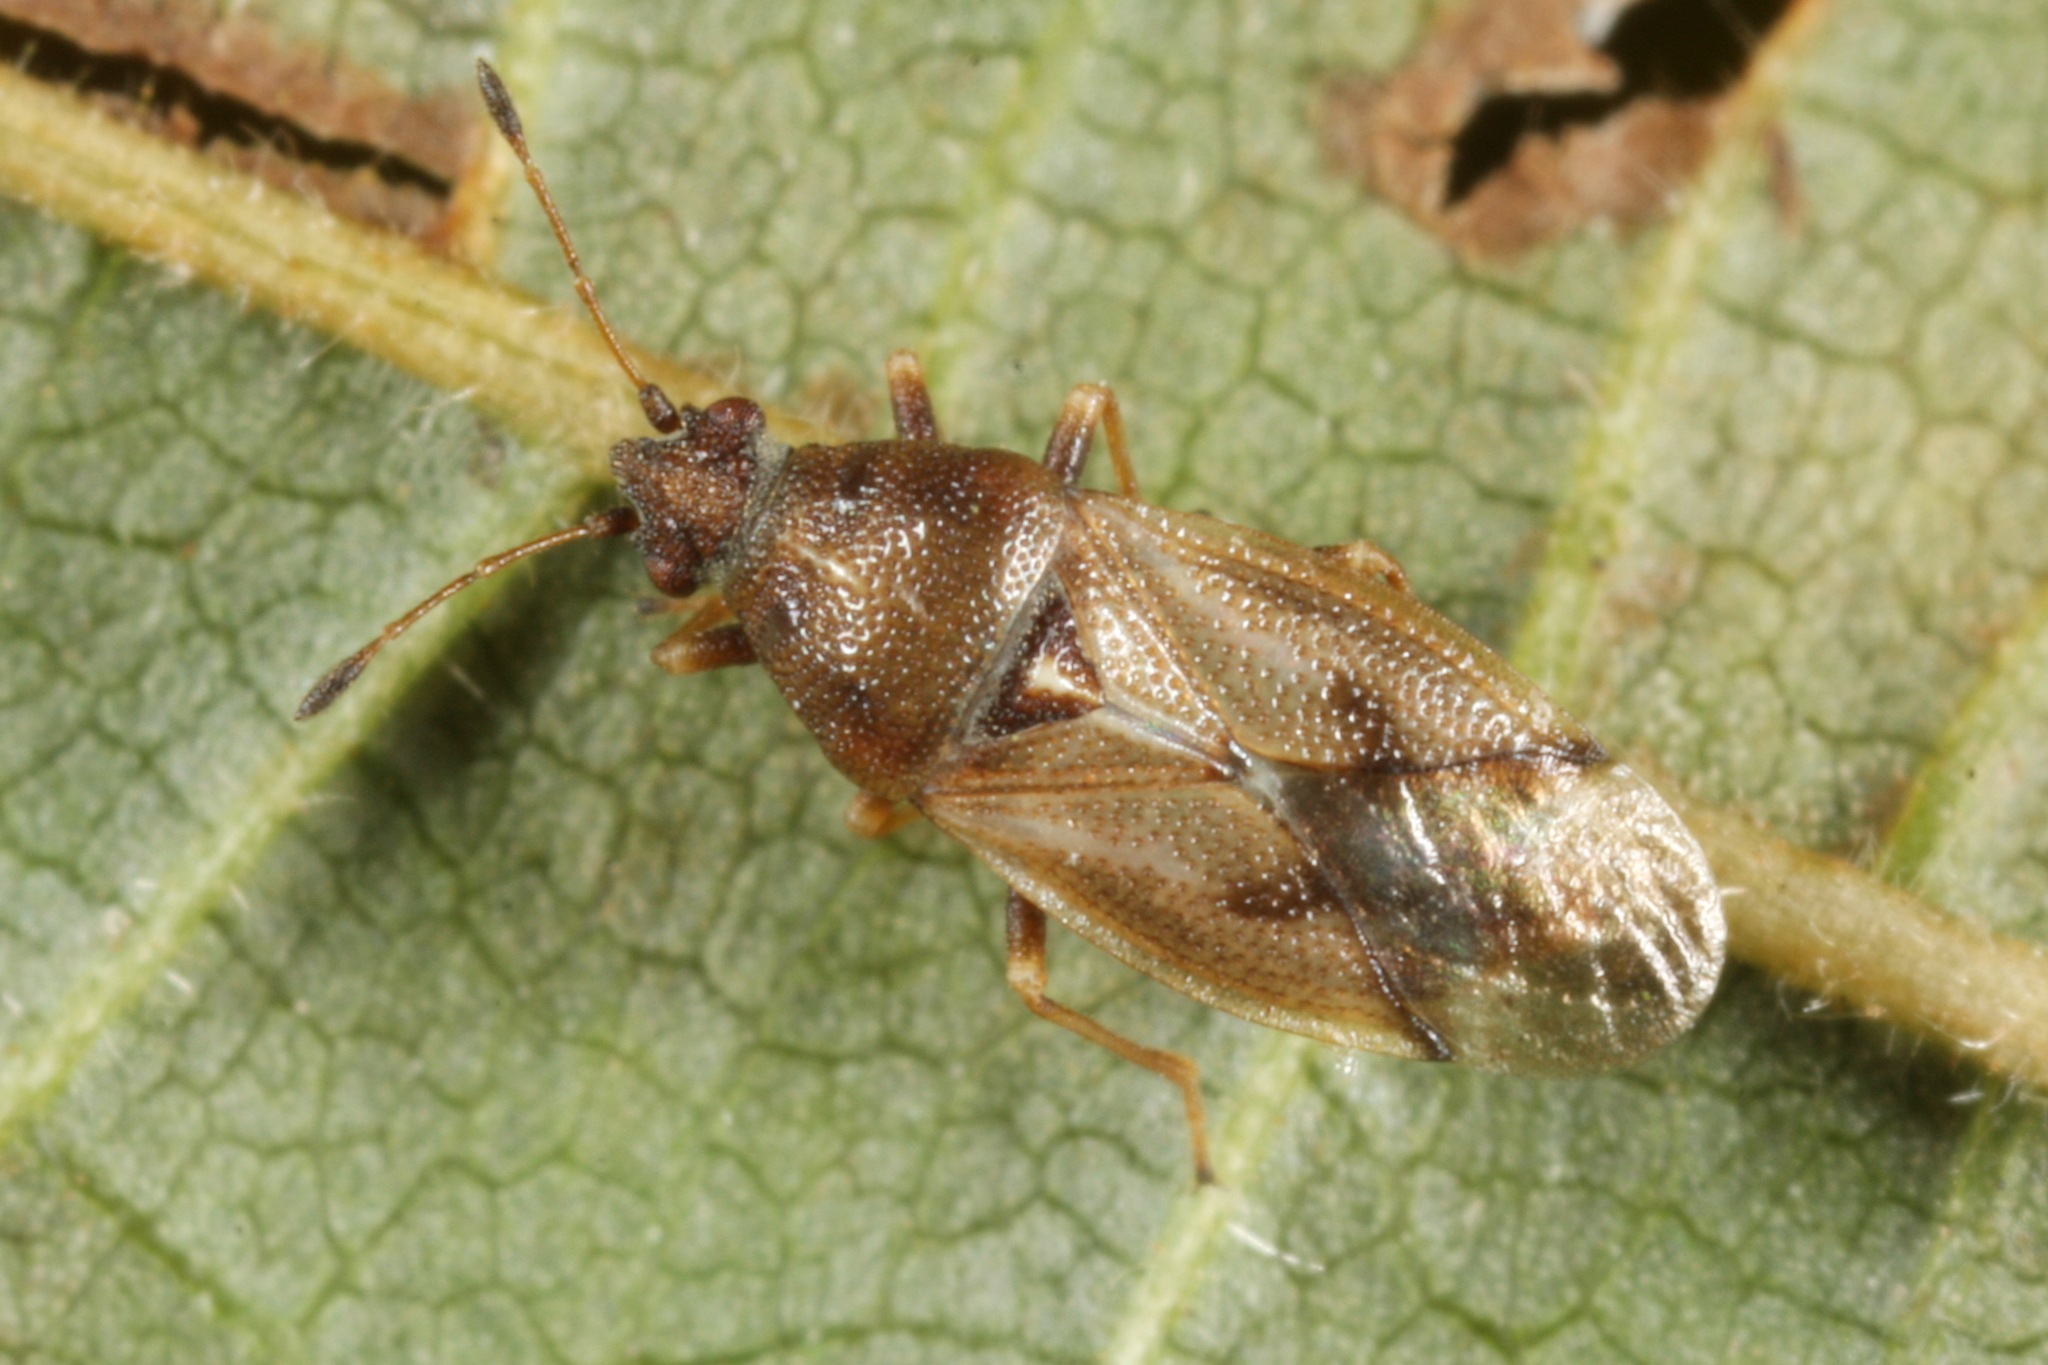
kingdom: Animalia
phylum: Arthropoda
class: Insecta
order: Hemiptera
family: Cymidae
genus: Cymus
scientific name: Cymus aurescens
